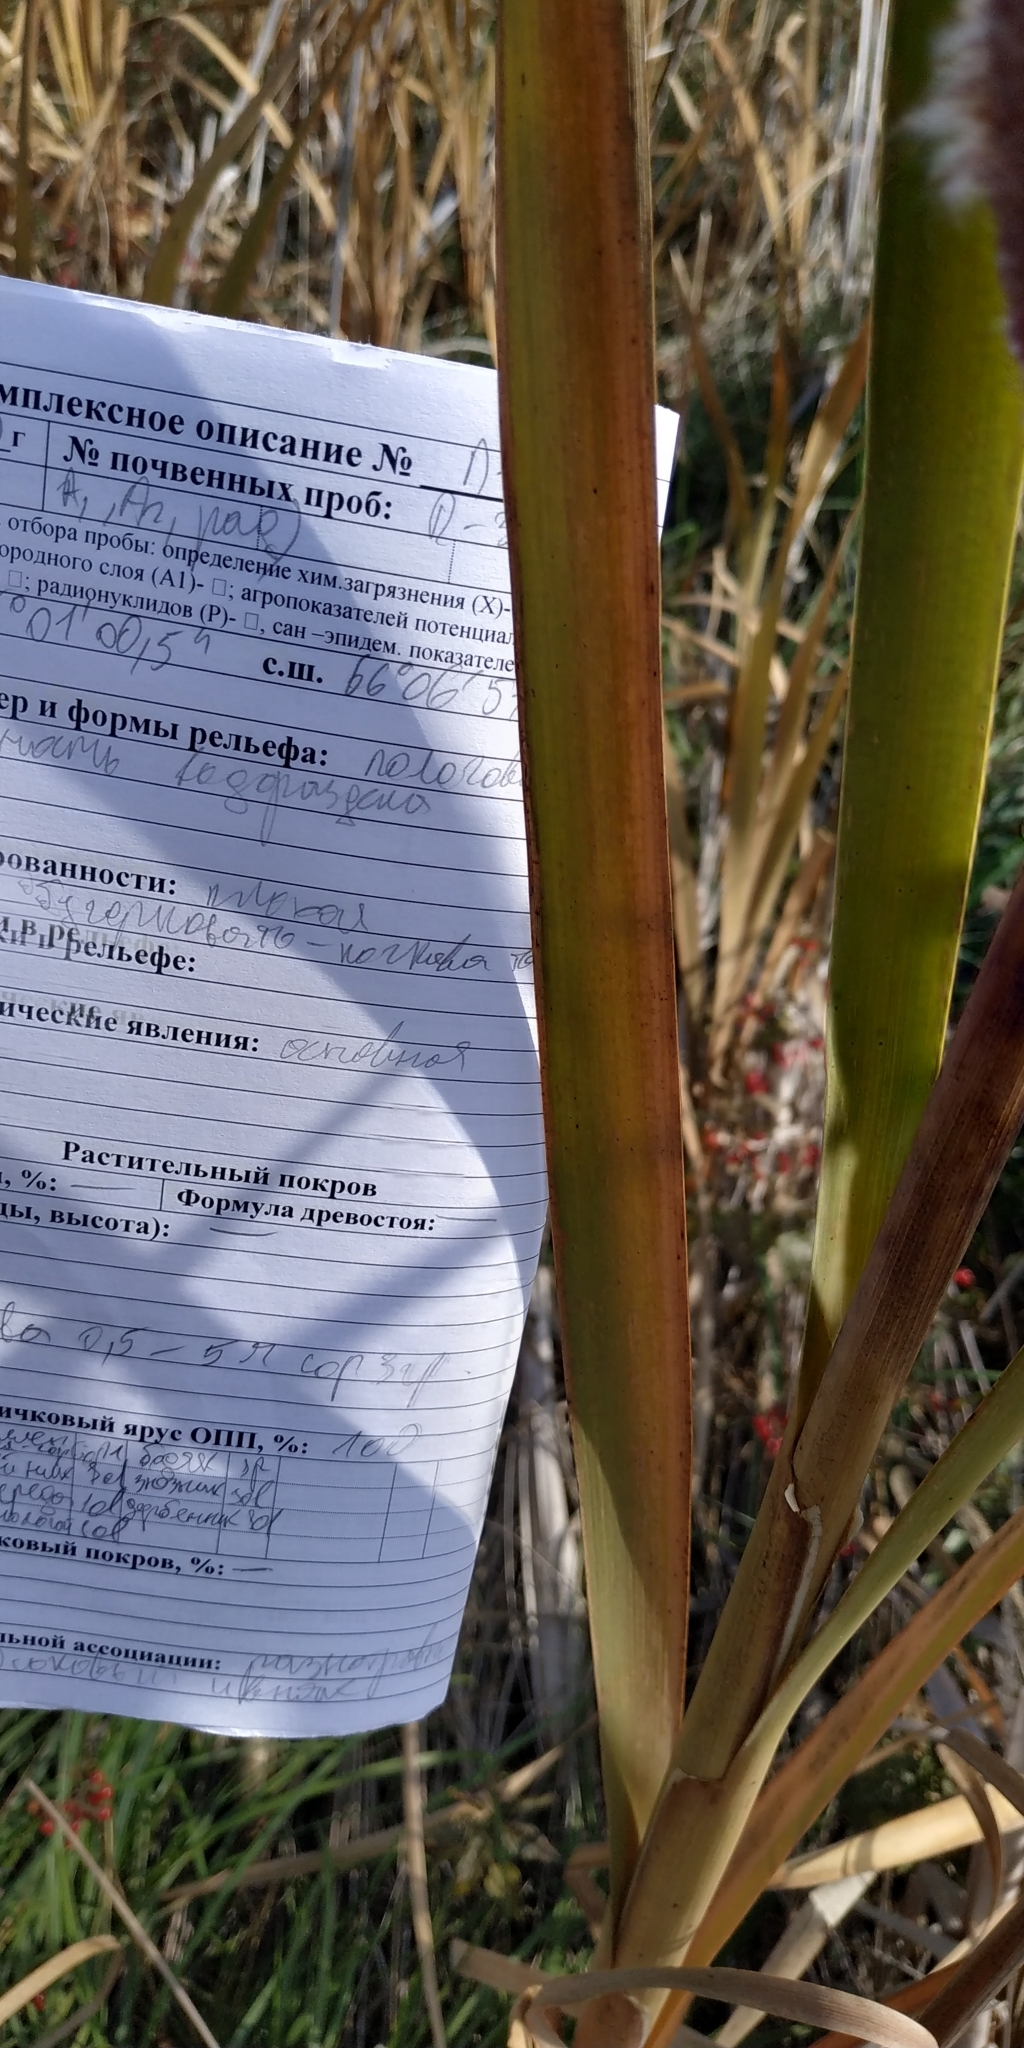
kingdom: Plantae
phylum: Tracheophyta
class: Liliopsida
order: Poales
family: Typhaceae
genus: Typha
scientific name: Typha latifolia
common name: Broadleaf cattail
